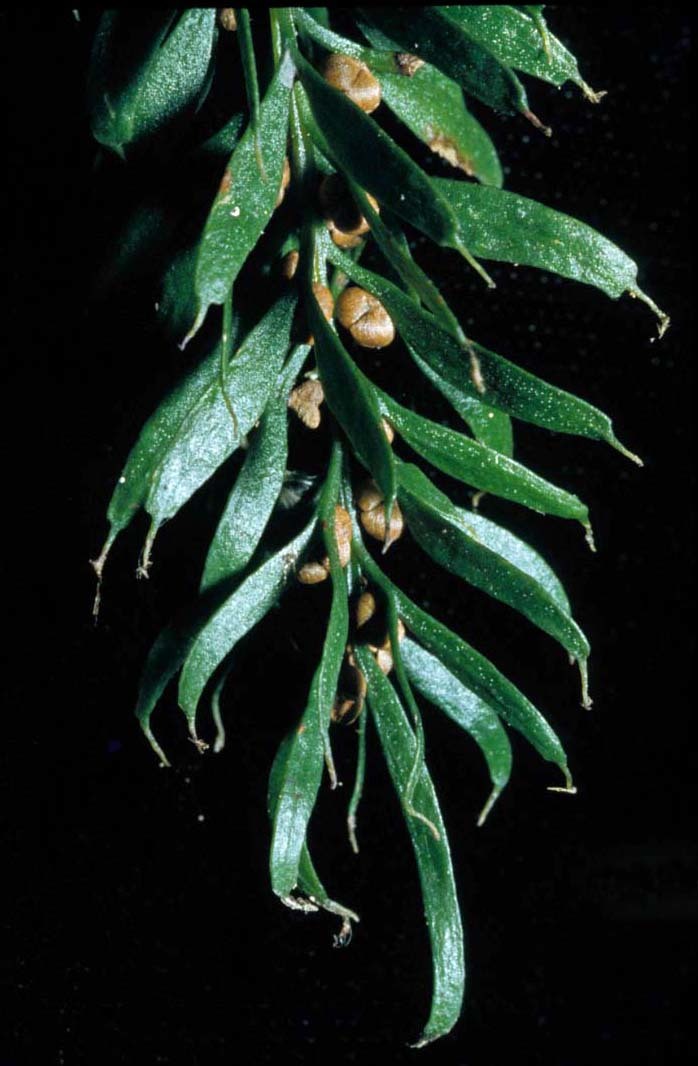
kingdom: Plantae
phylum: Tracheophyta
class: Polypodiopsida
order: Psilotales
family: Psilotaceae
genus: Tmesipteris
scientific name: Tmesipteris sigmatifolia
